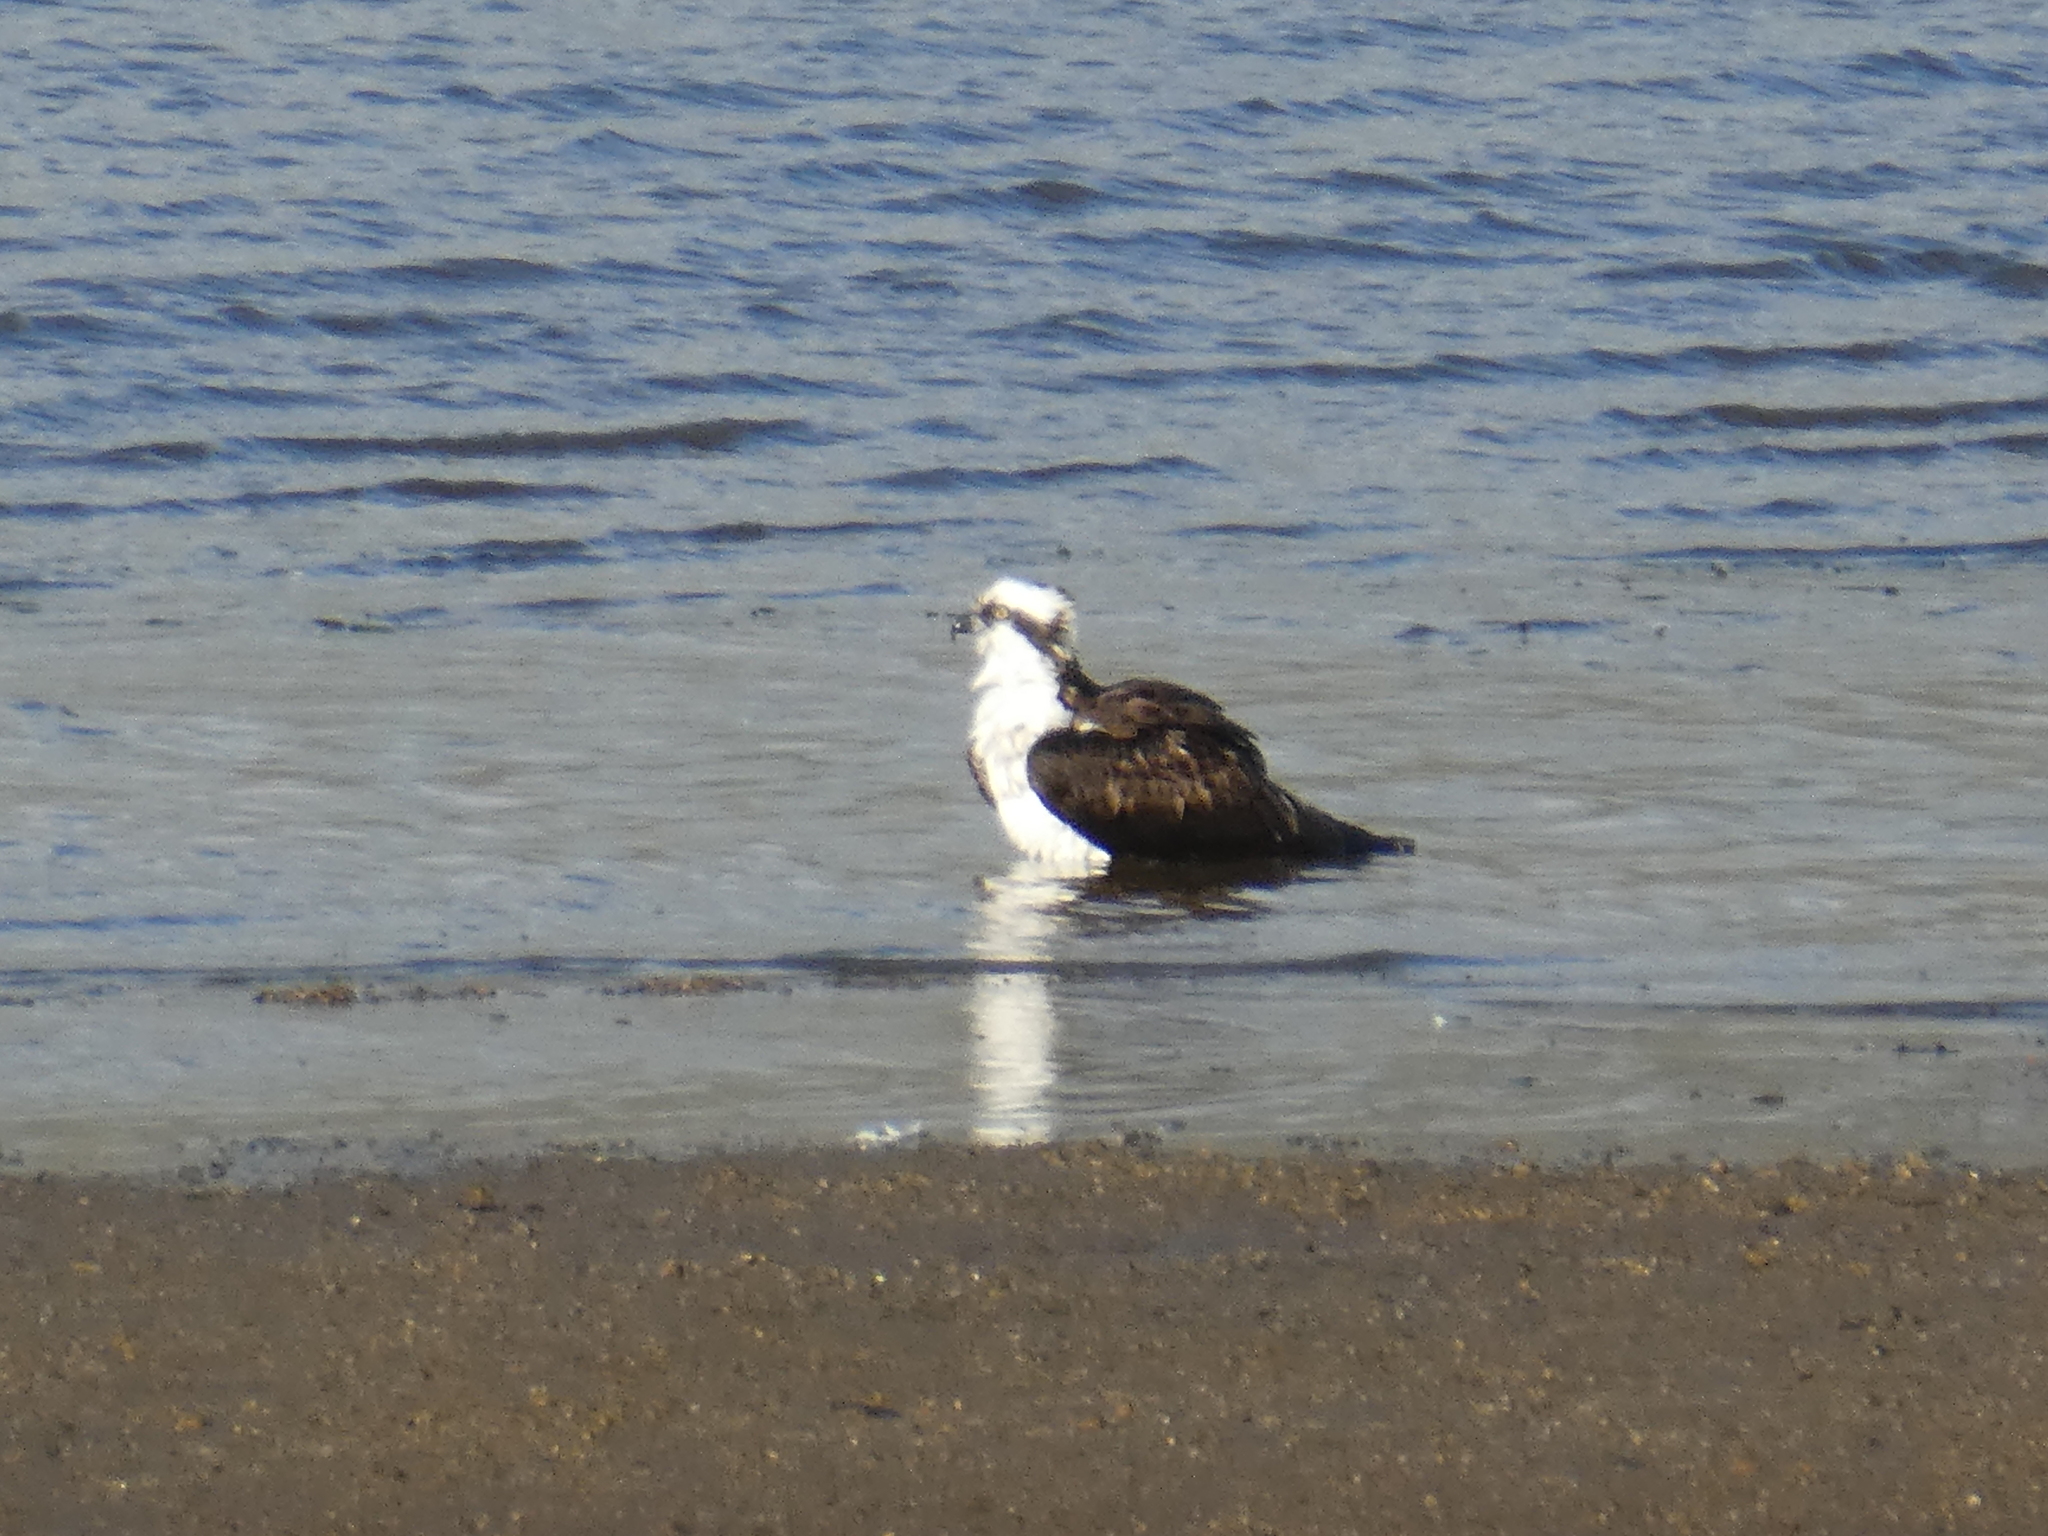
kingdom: Animalia
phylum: Chordata
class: Aves
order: Accipitriformes
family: Pandionidae
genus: Pandion
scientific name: Pandion haliaetus
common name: Osprey
